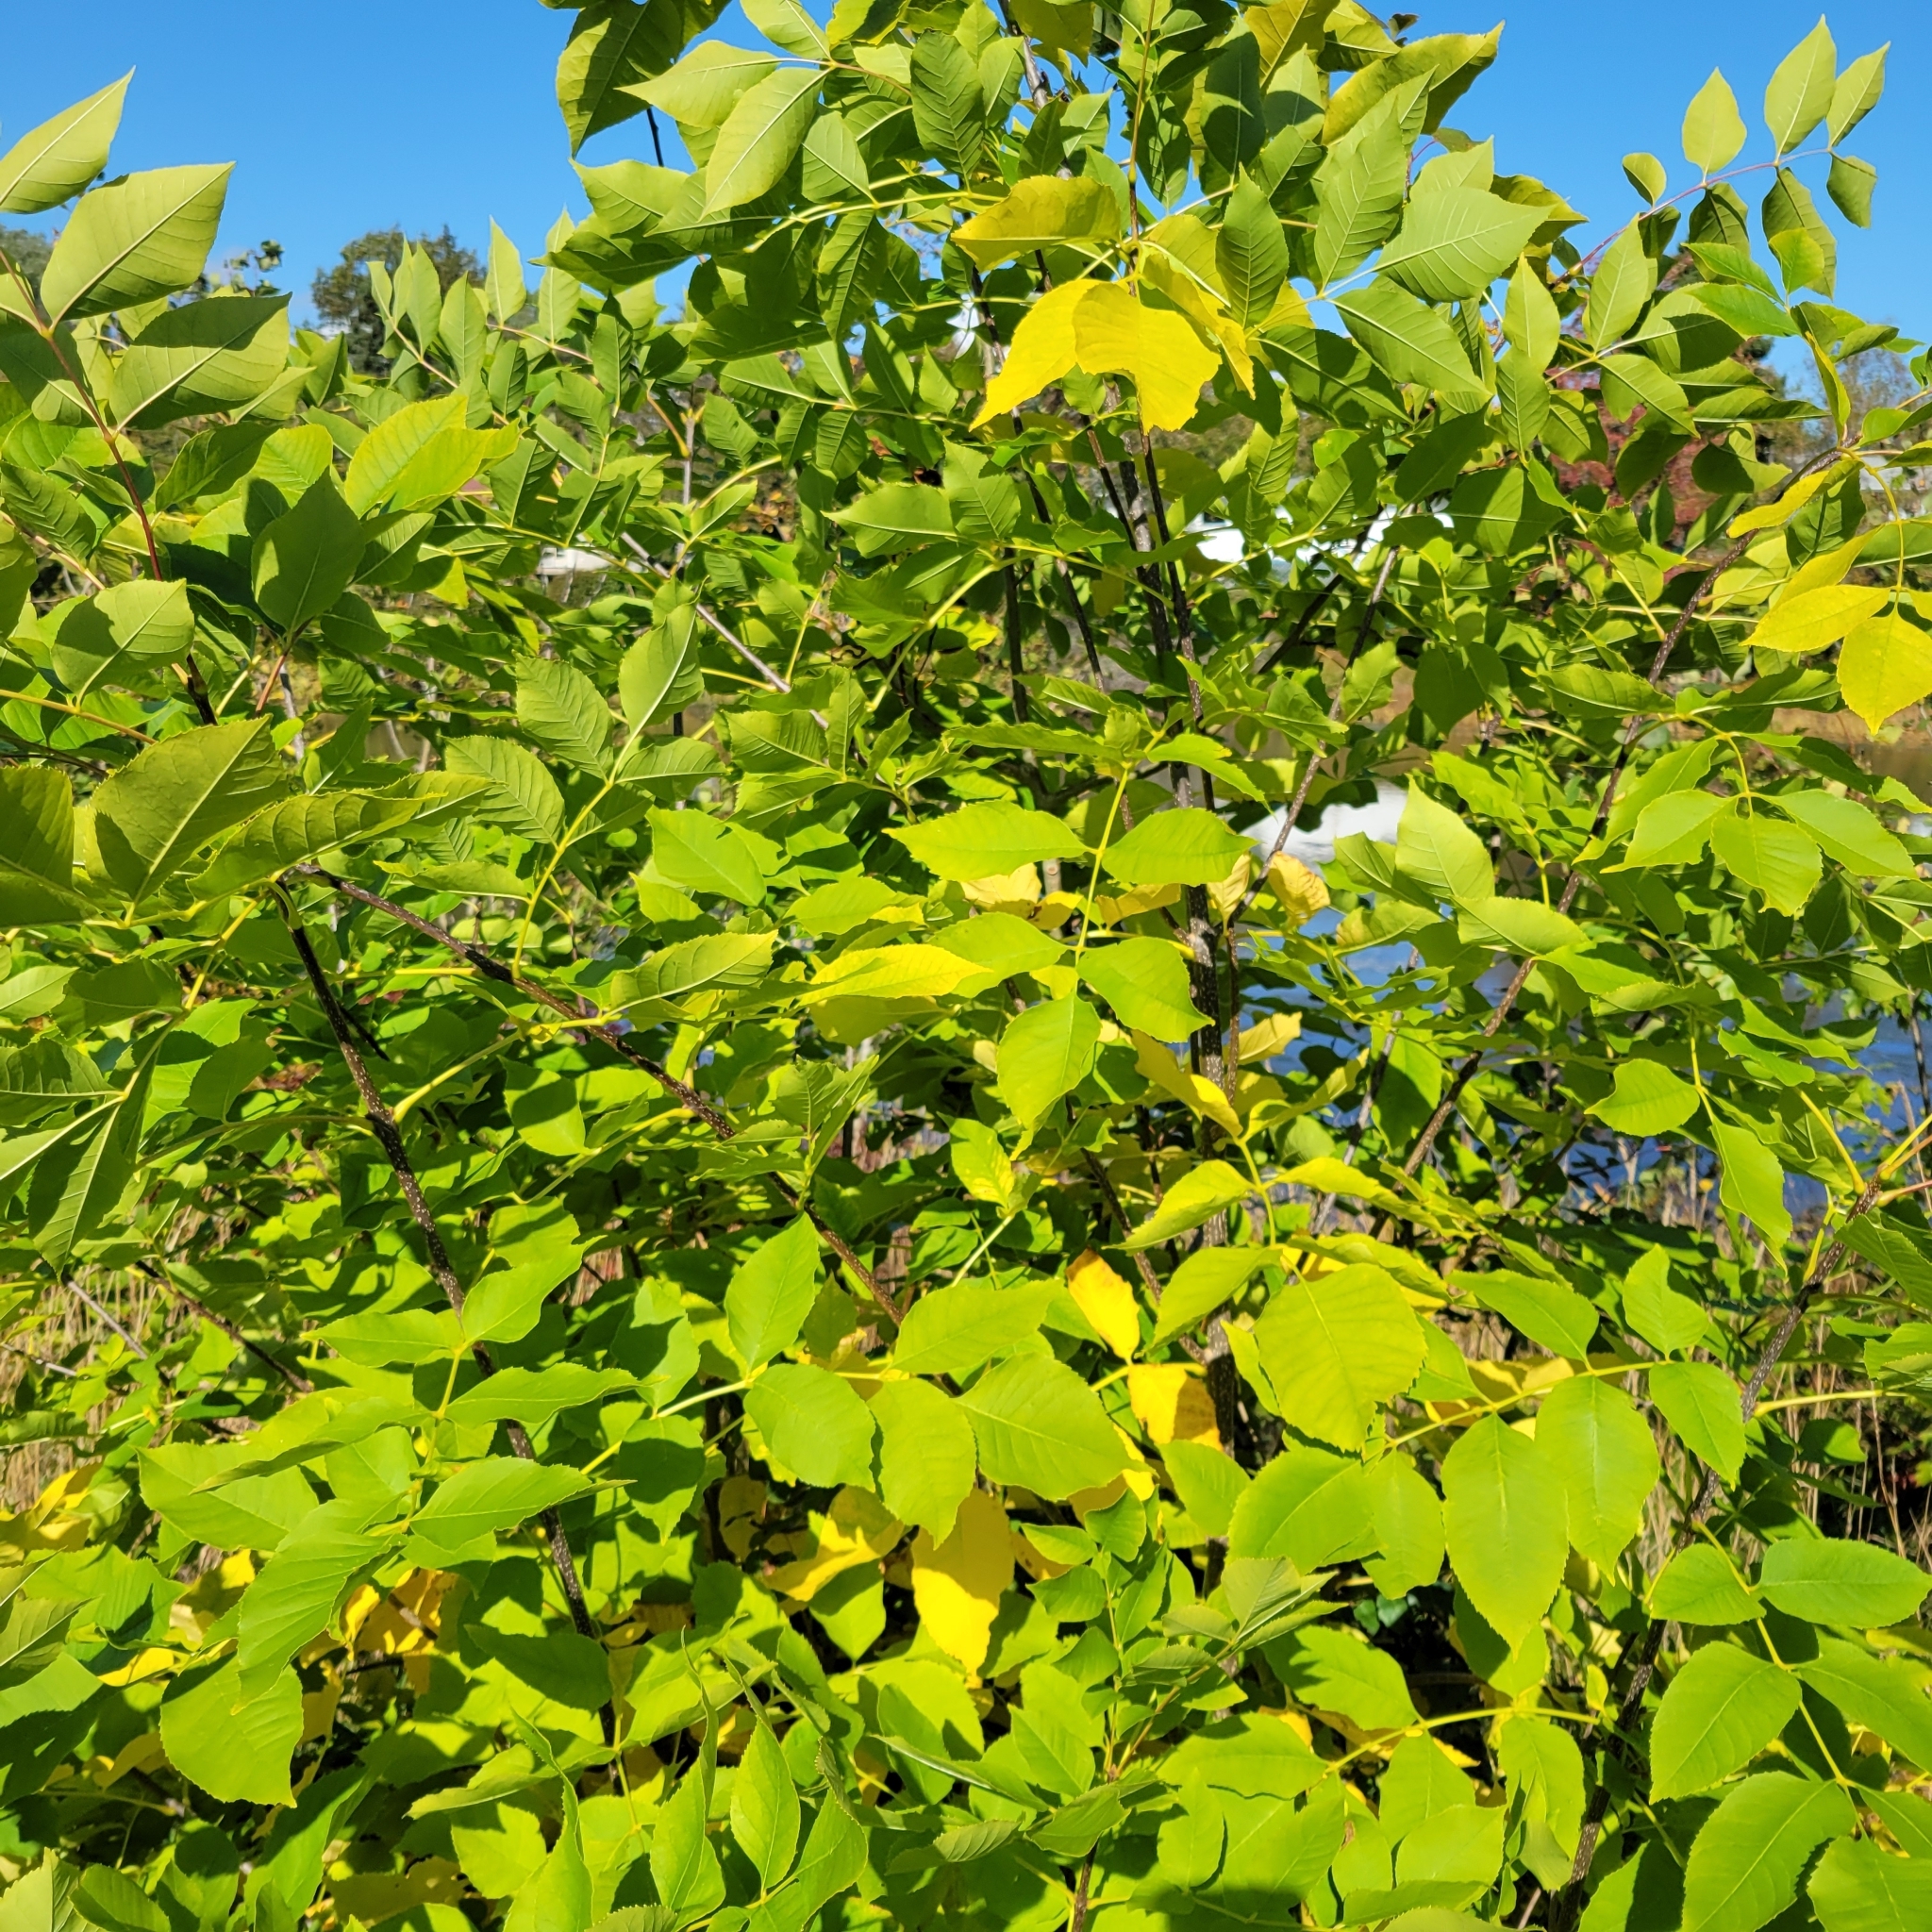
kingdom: Plantae
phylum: Tracheophyta
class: Magnoliopsida
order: Lamiales
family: Oleaceae
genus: Fraxinus
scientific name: Fraxinus americana
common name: White ash
